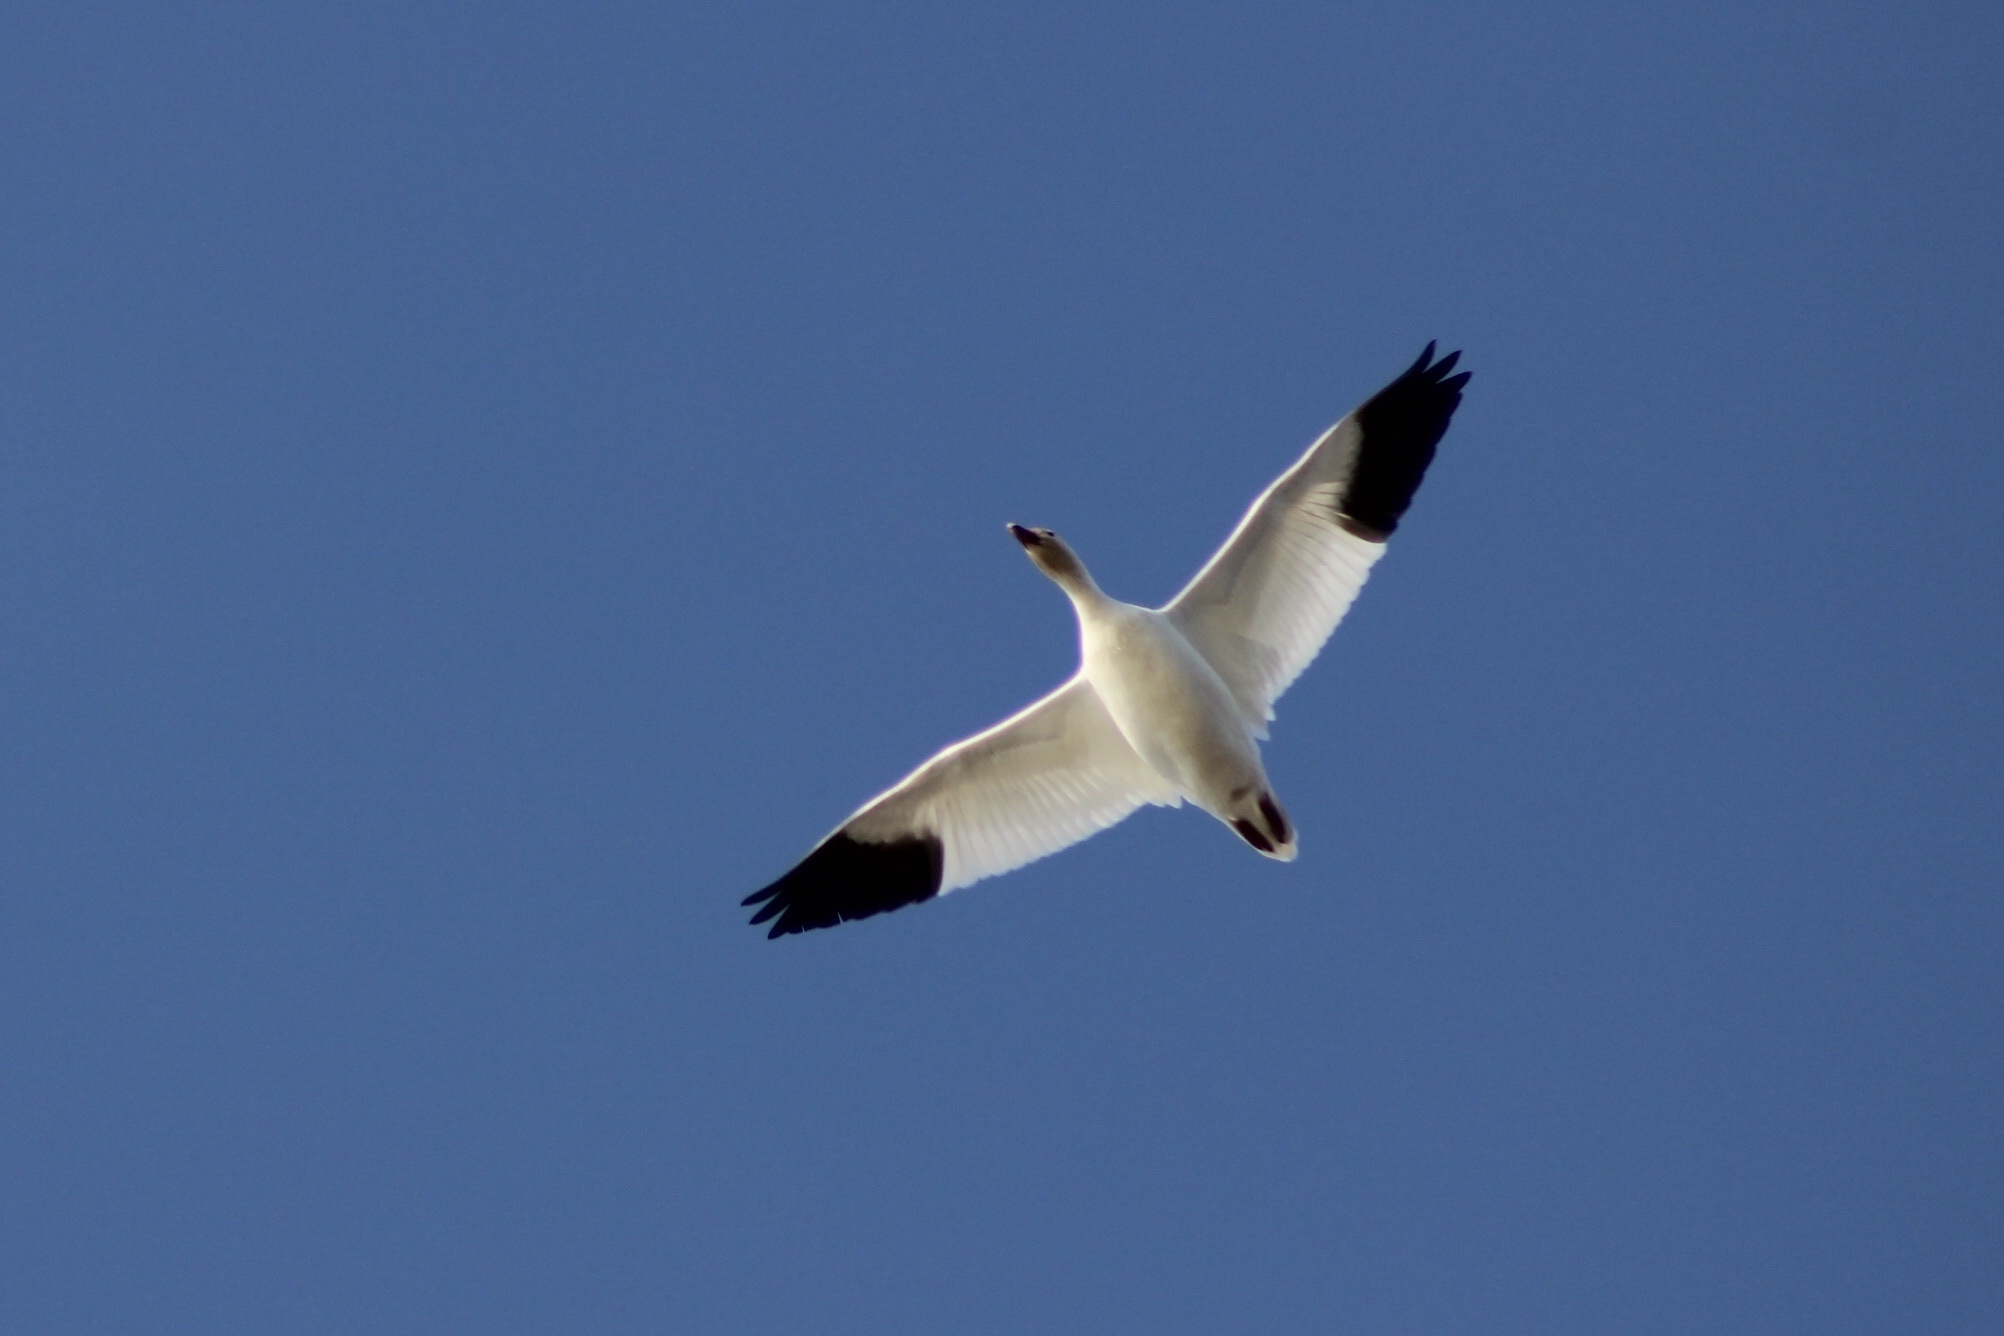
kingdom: Animalia
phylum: Chordata
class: Aves
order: Anseriformes
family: Anatidae
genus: Anser
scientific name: Anser caerulescens
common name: Snow goose
